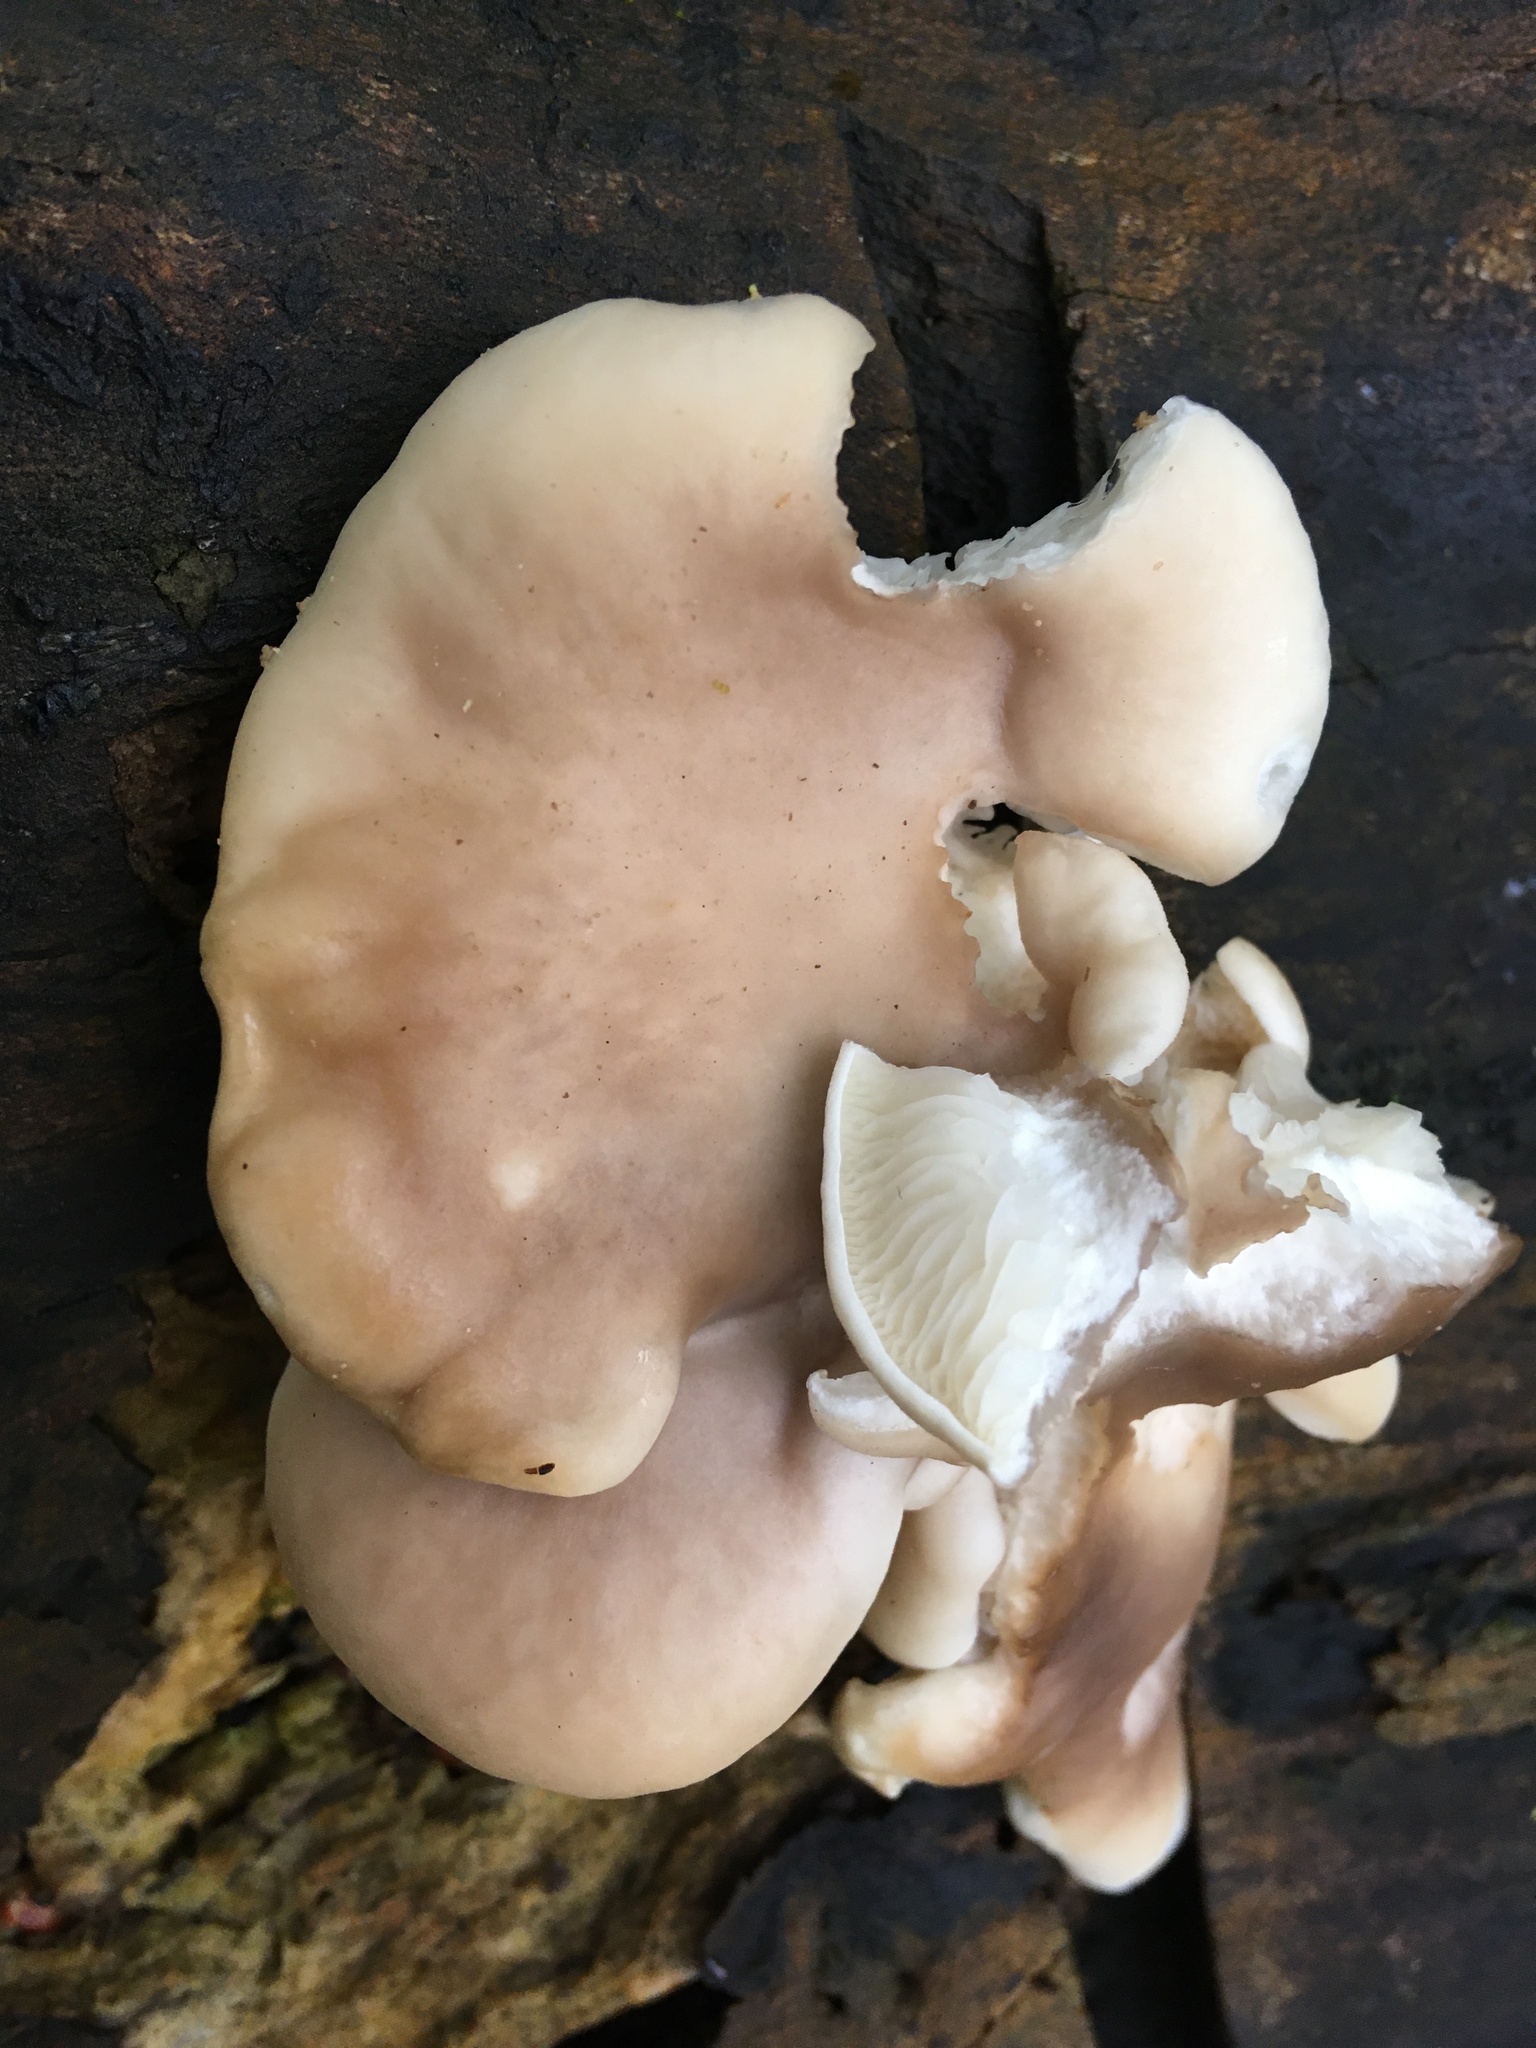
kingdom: Fungi
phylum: Basidiomycota
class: Agaricomycetes
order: Agaricales
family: Pleurotaceae
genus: Pleurotus
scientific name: Pleurotus ostreatus
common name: Oyster mushroom
